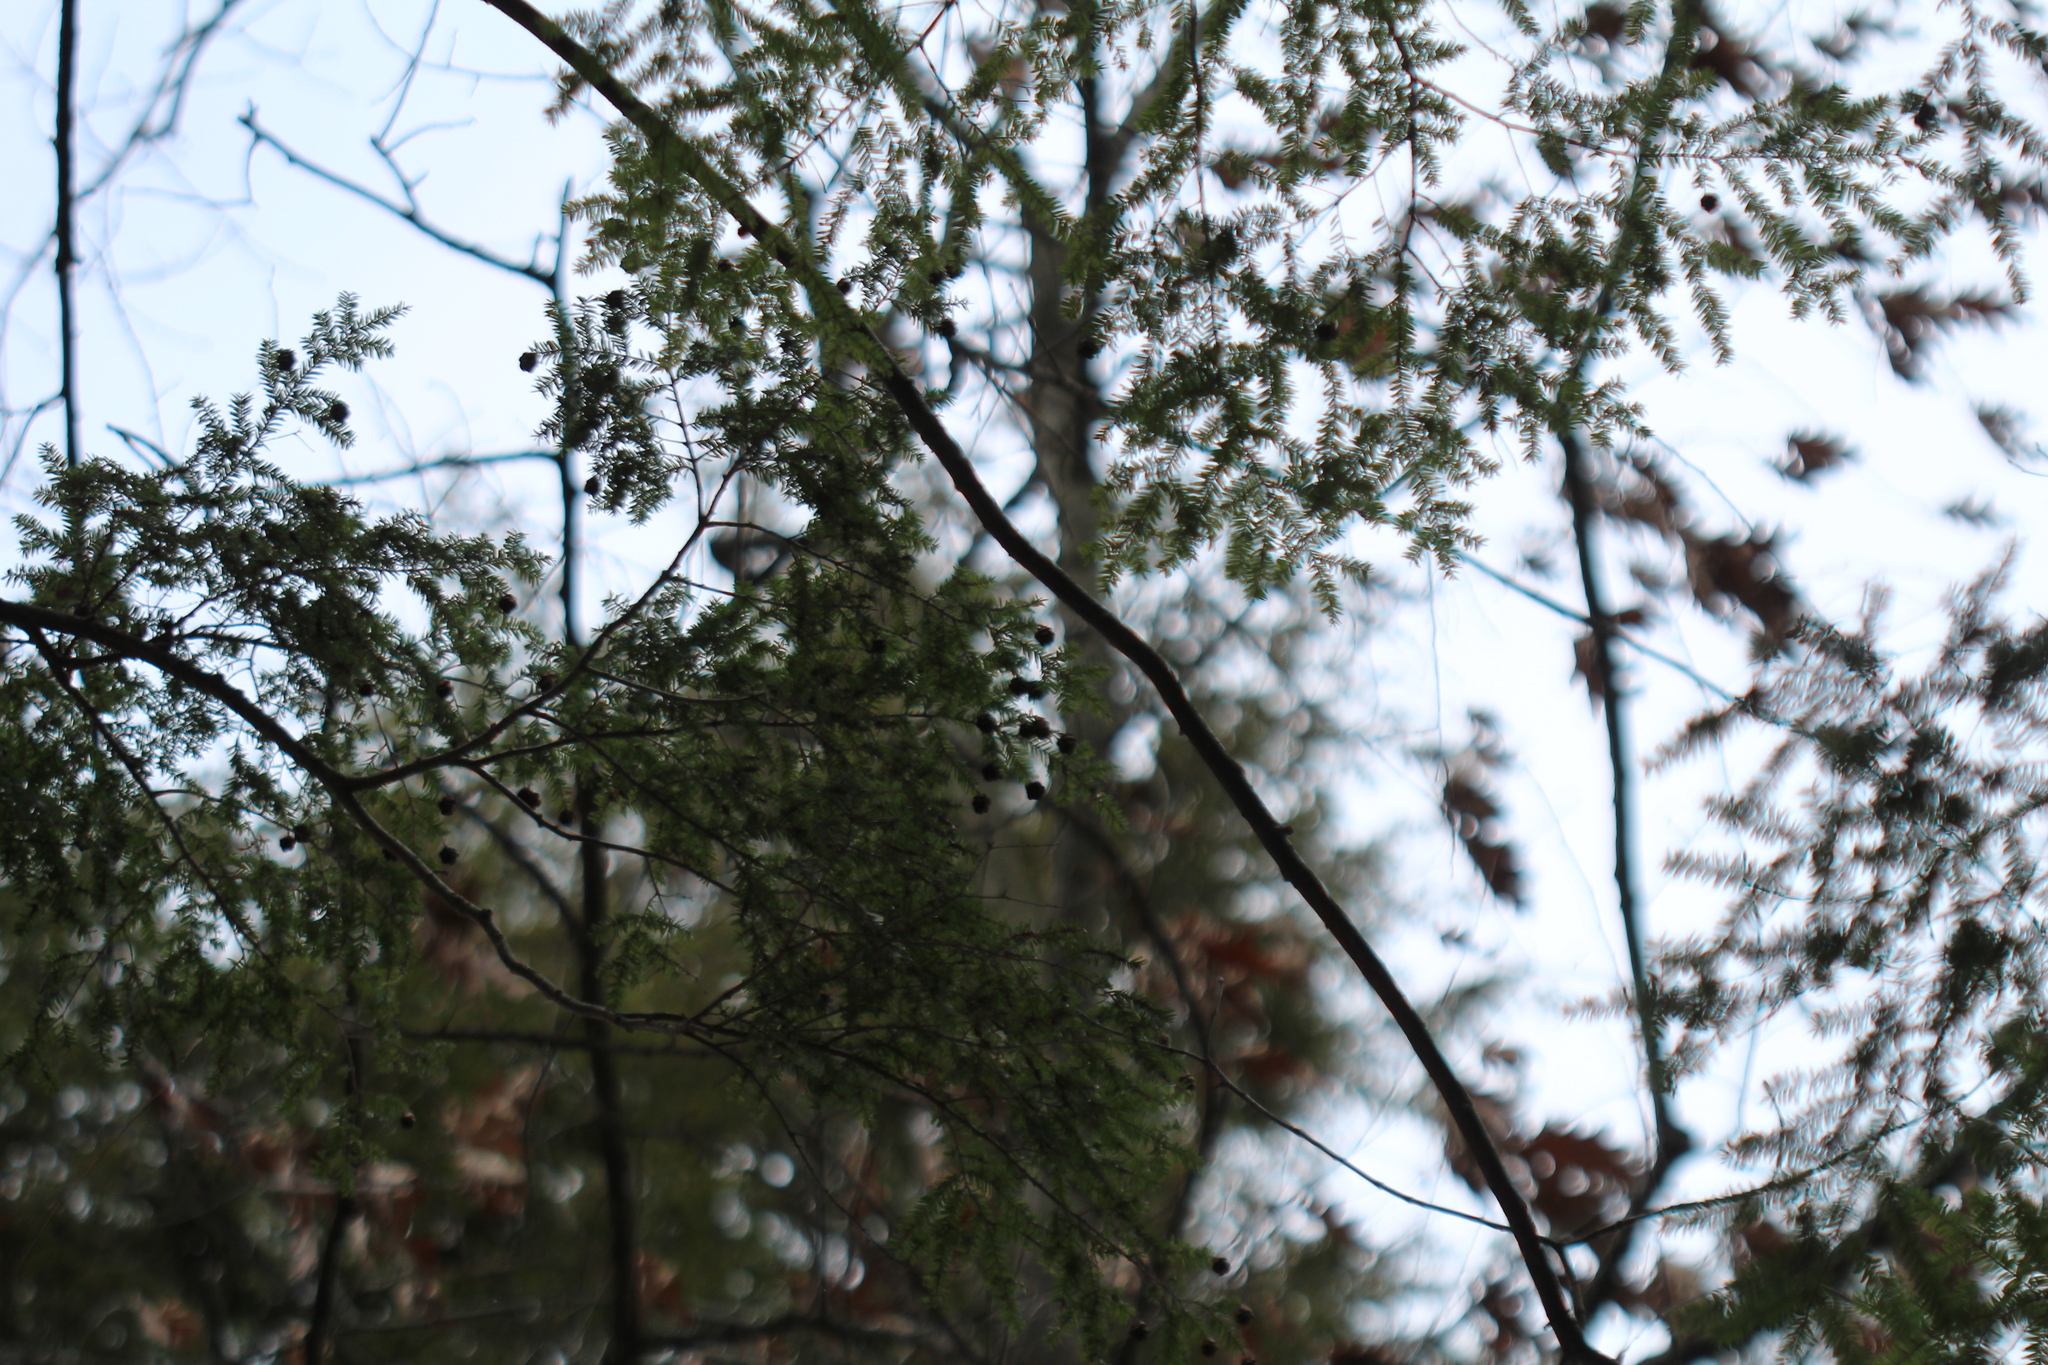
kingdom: Plantae
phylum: Tracheophyta
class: Pinopsida
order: Pinales
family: Pinaceae
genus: Tsuga
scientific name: Tsuga canadensis
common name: Eastern hemlock
